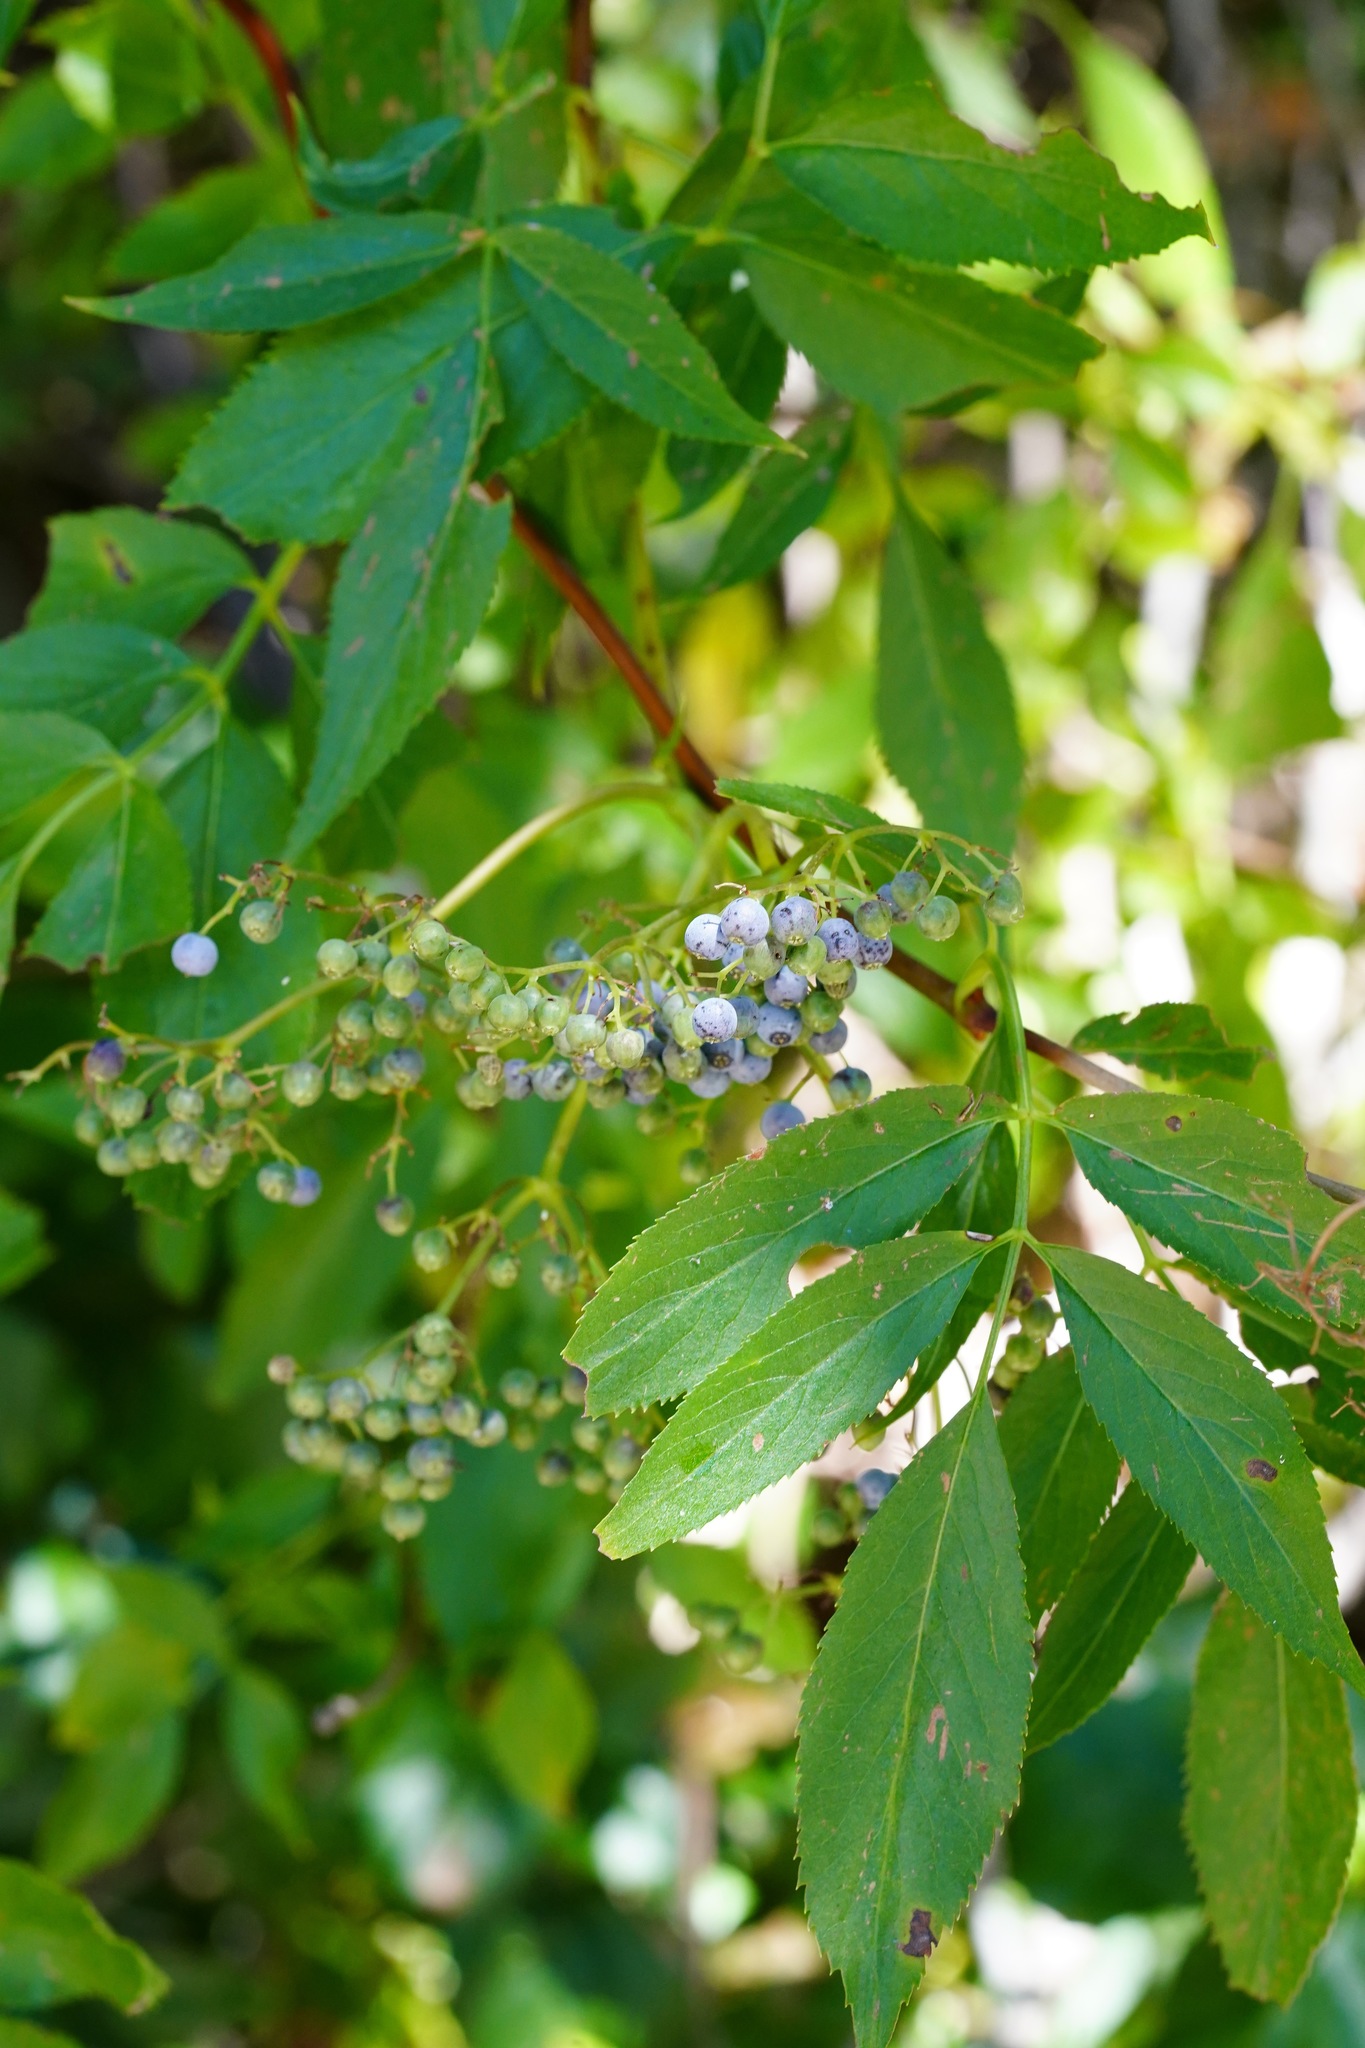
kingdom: Plantae
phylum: Tracheophyta
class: Magnoliopsida
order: Dipsacales
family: Viburnaceae
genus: Sambucus
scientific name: Sambucus cerulea
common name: Blue elder
